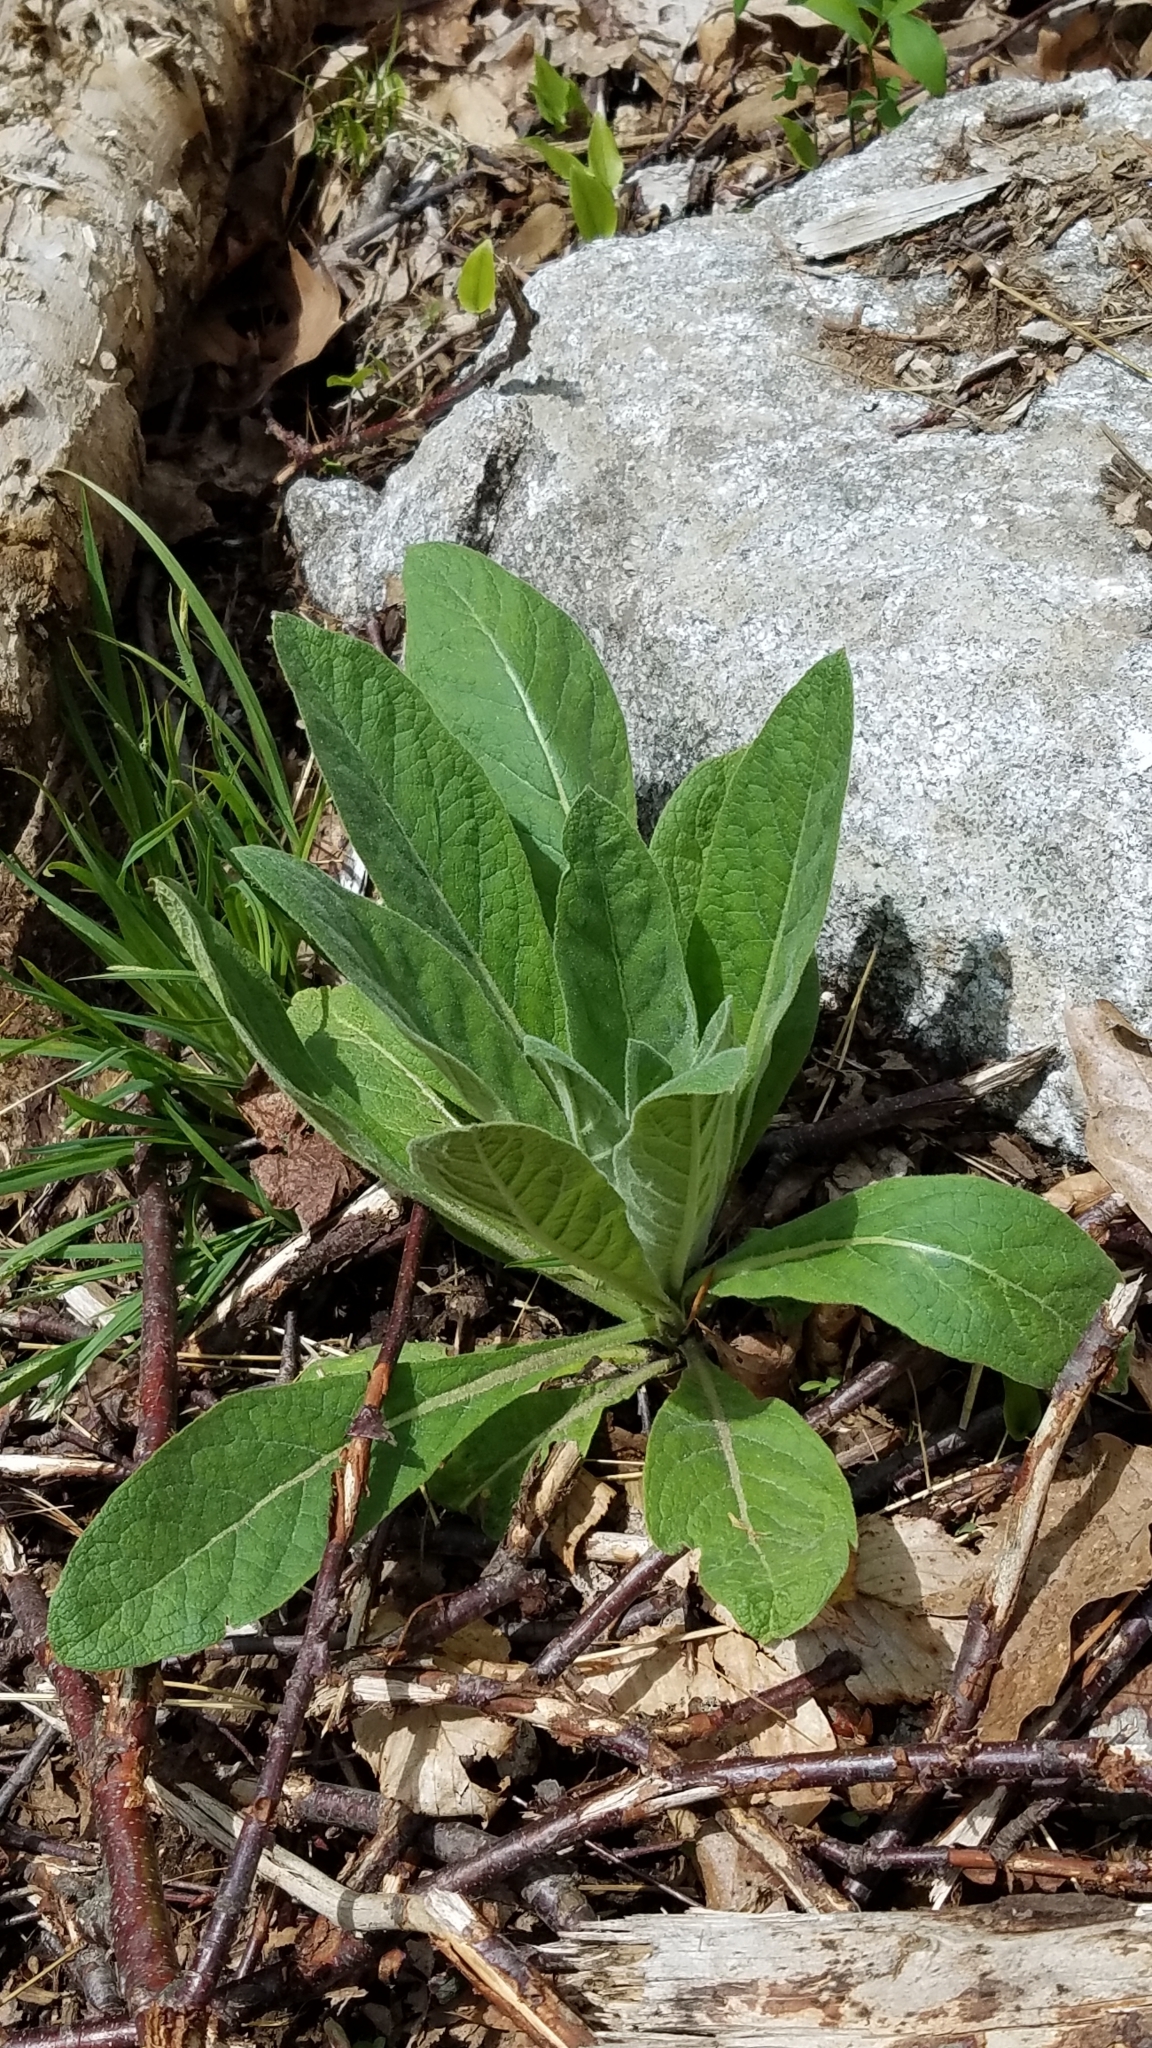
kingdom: Plantae
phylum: Tracheophyta
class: Magnoliopsida
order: Lamiales
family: Scrophulariaceae
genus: Verbascum
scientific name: Verbascum thapsus
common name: Common mullein
